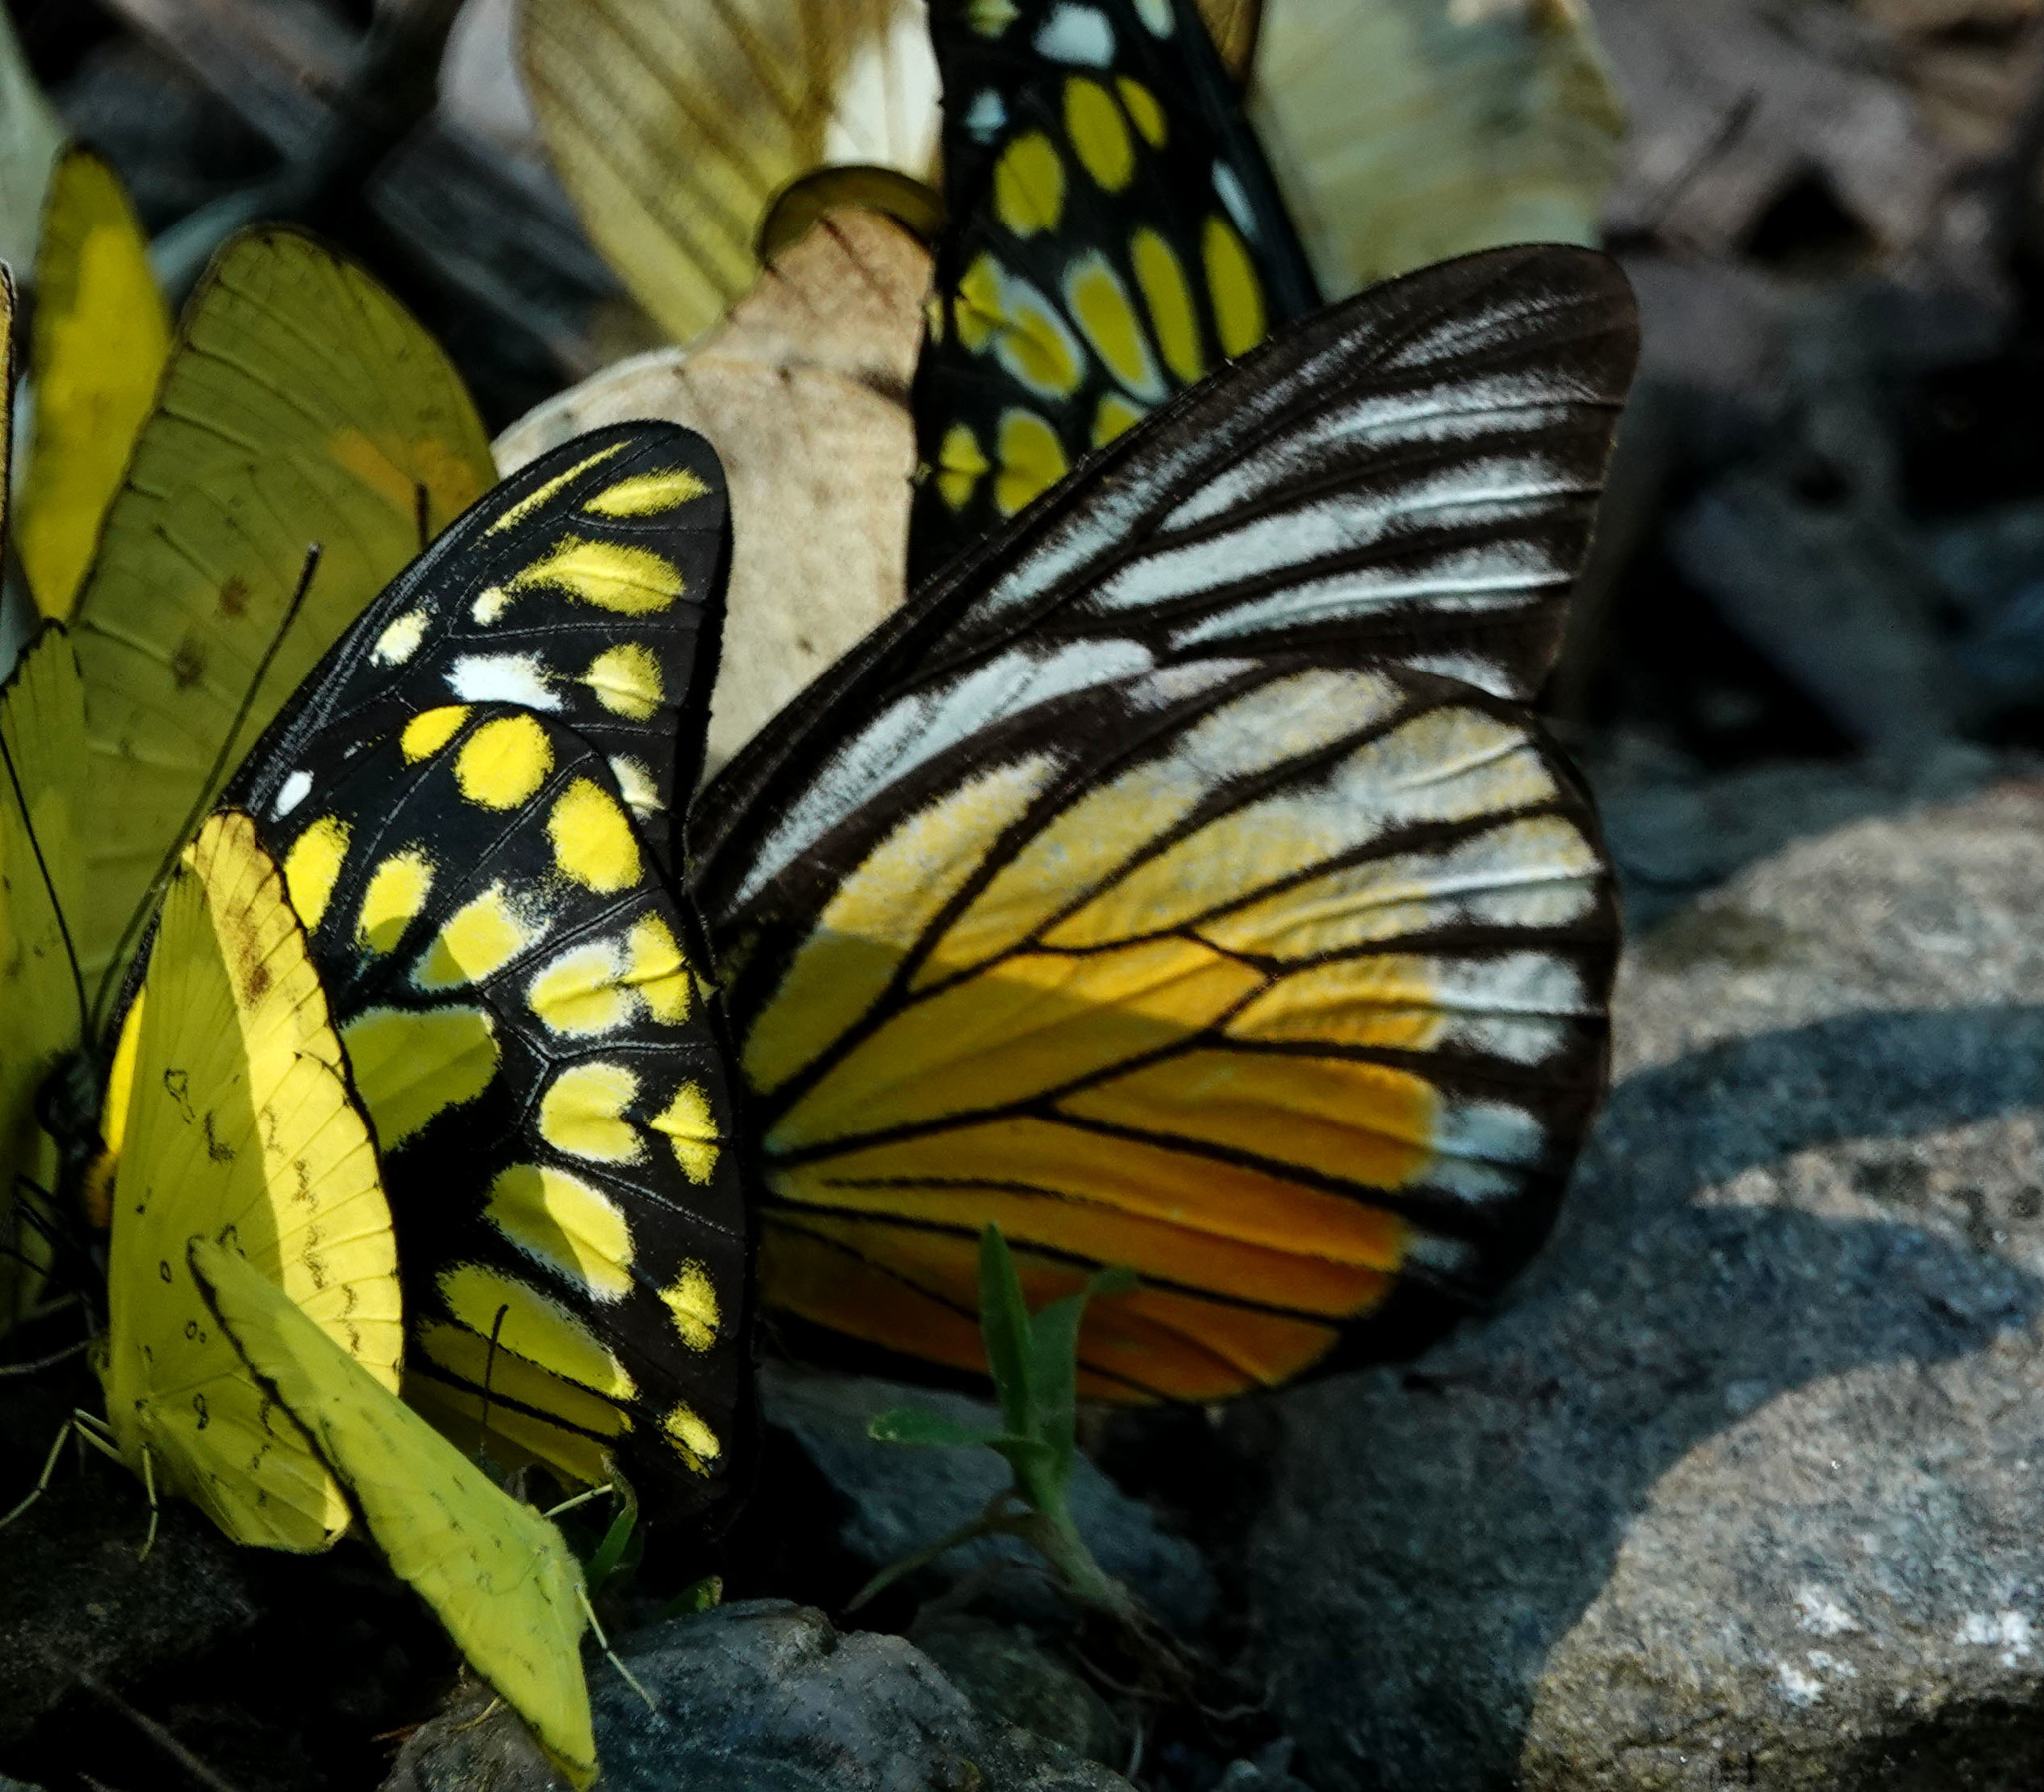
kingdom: Animalia
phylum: Arthropoda
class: Insecta
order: Lepidoptera
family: Pieridae
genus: Prioneris
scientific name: Prioneris philonome
